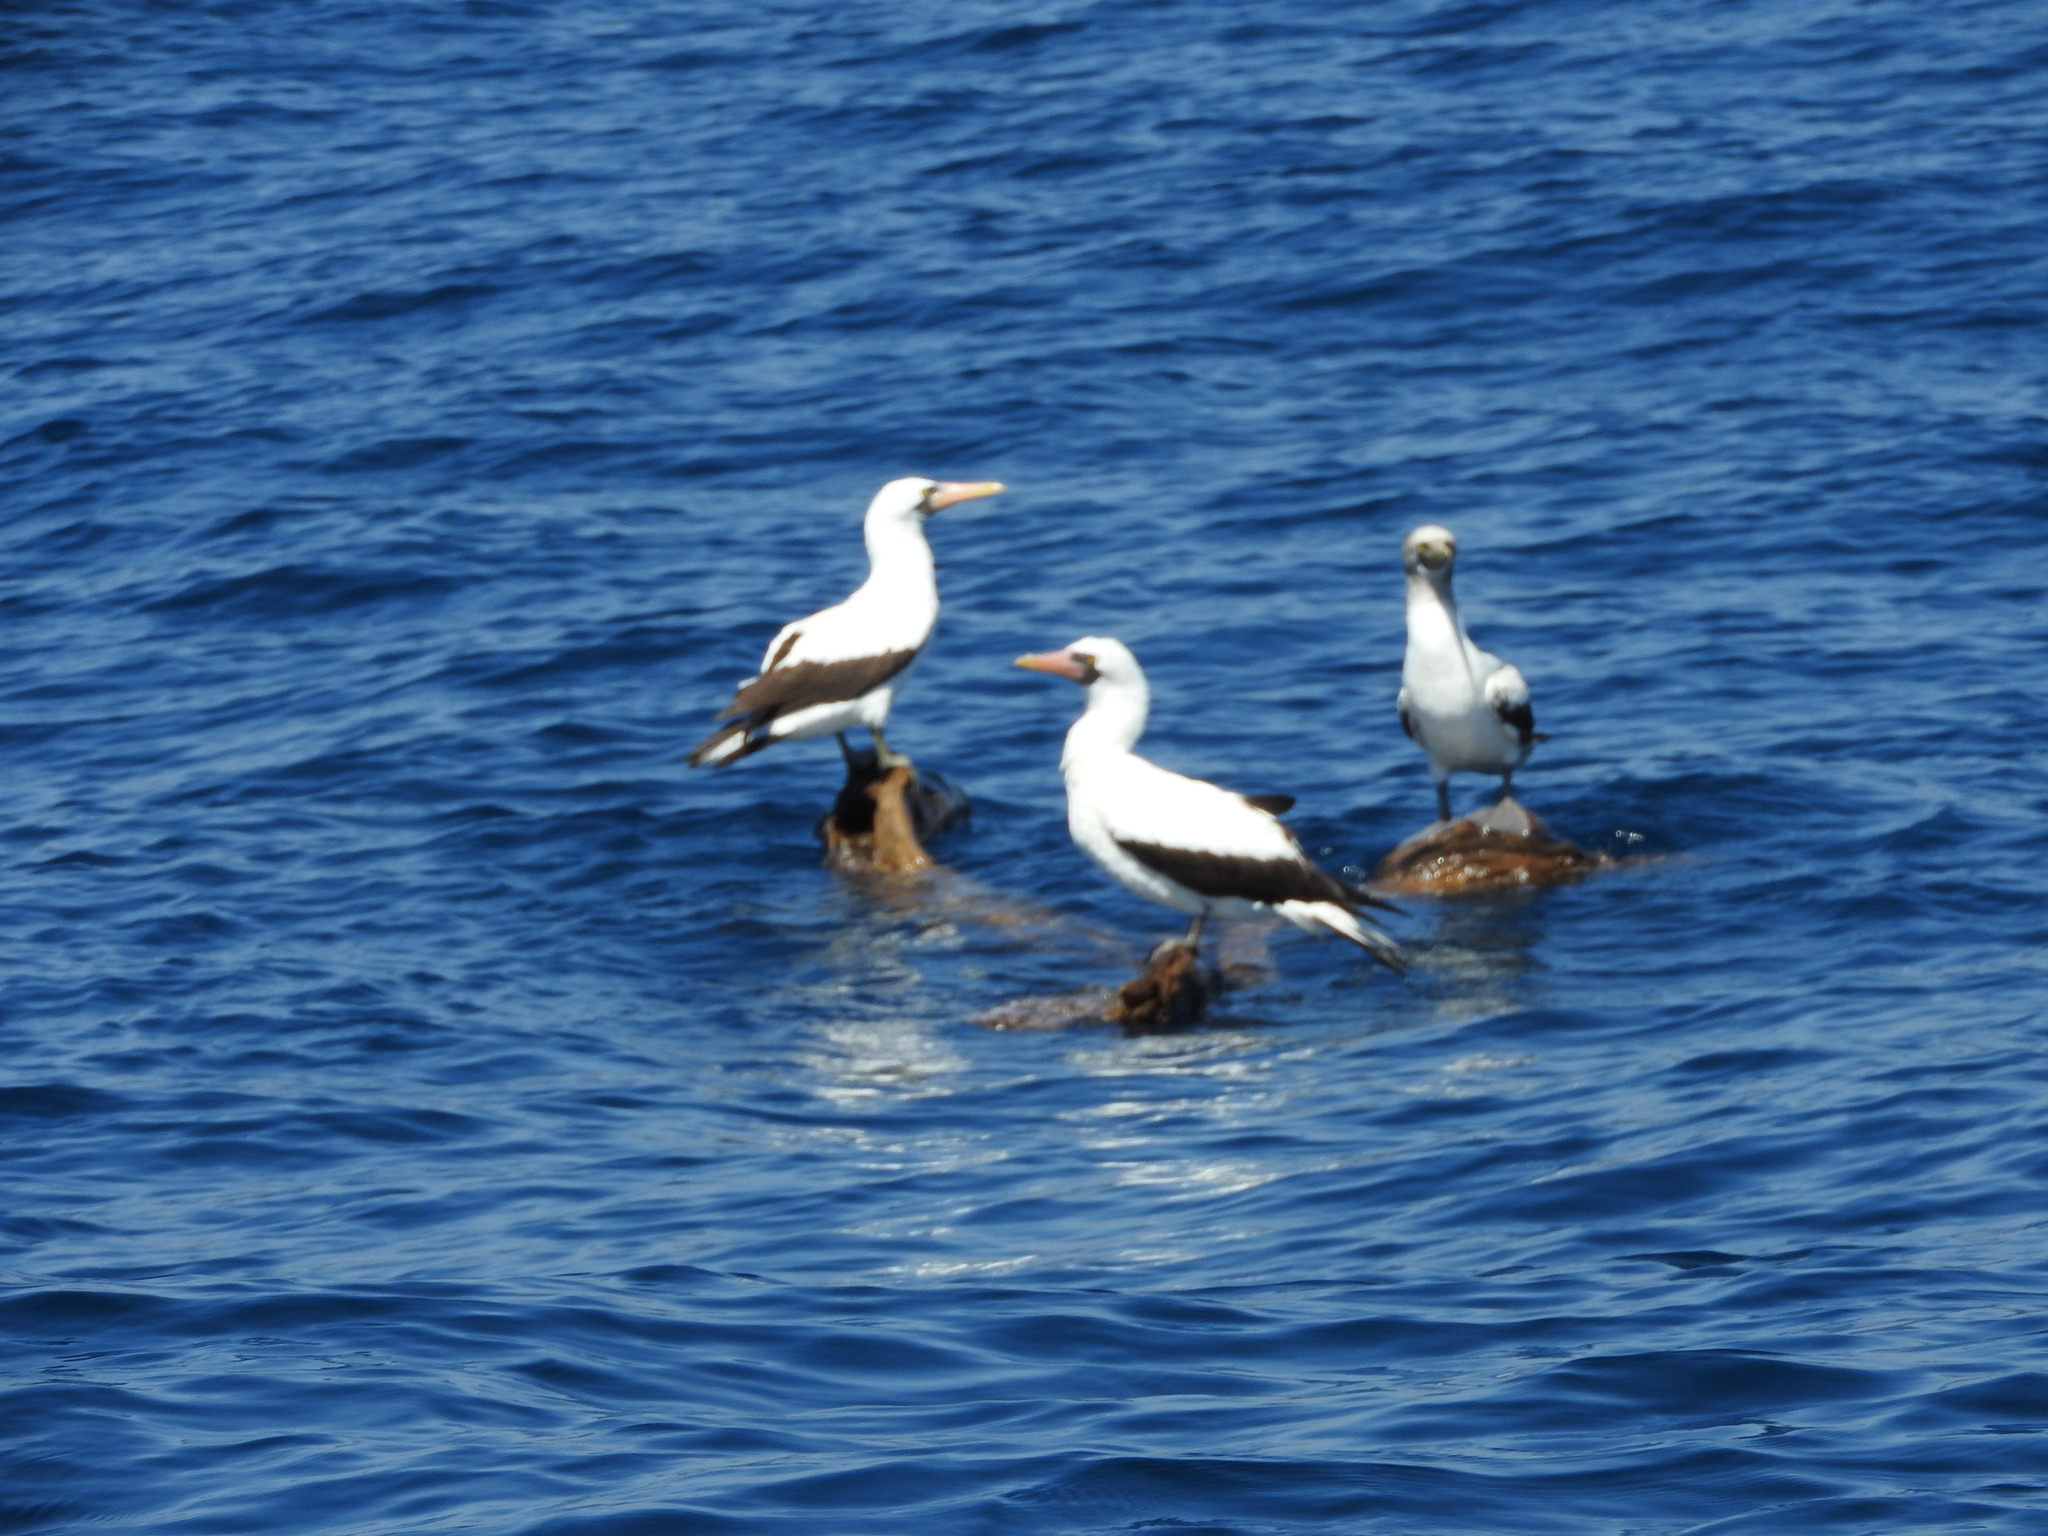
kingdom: Animalia
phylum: Chordata
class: Aves
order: Suliformes
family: Sulidae
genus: Sula
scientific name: Sula granti
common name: Nazca booby
